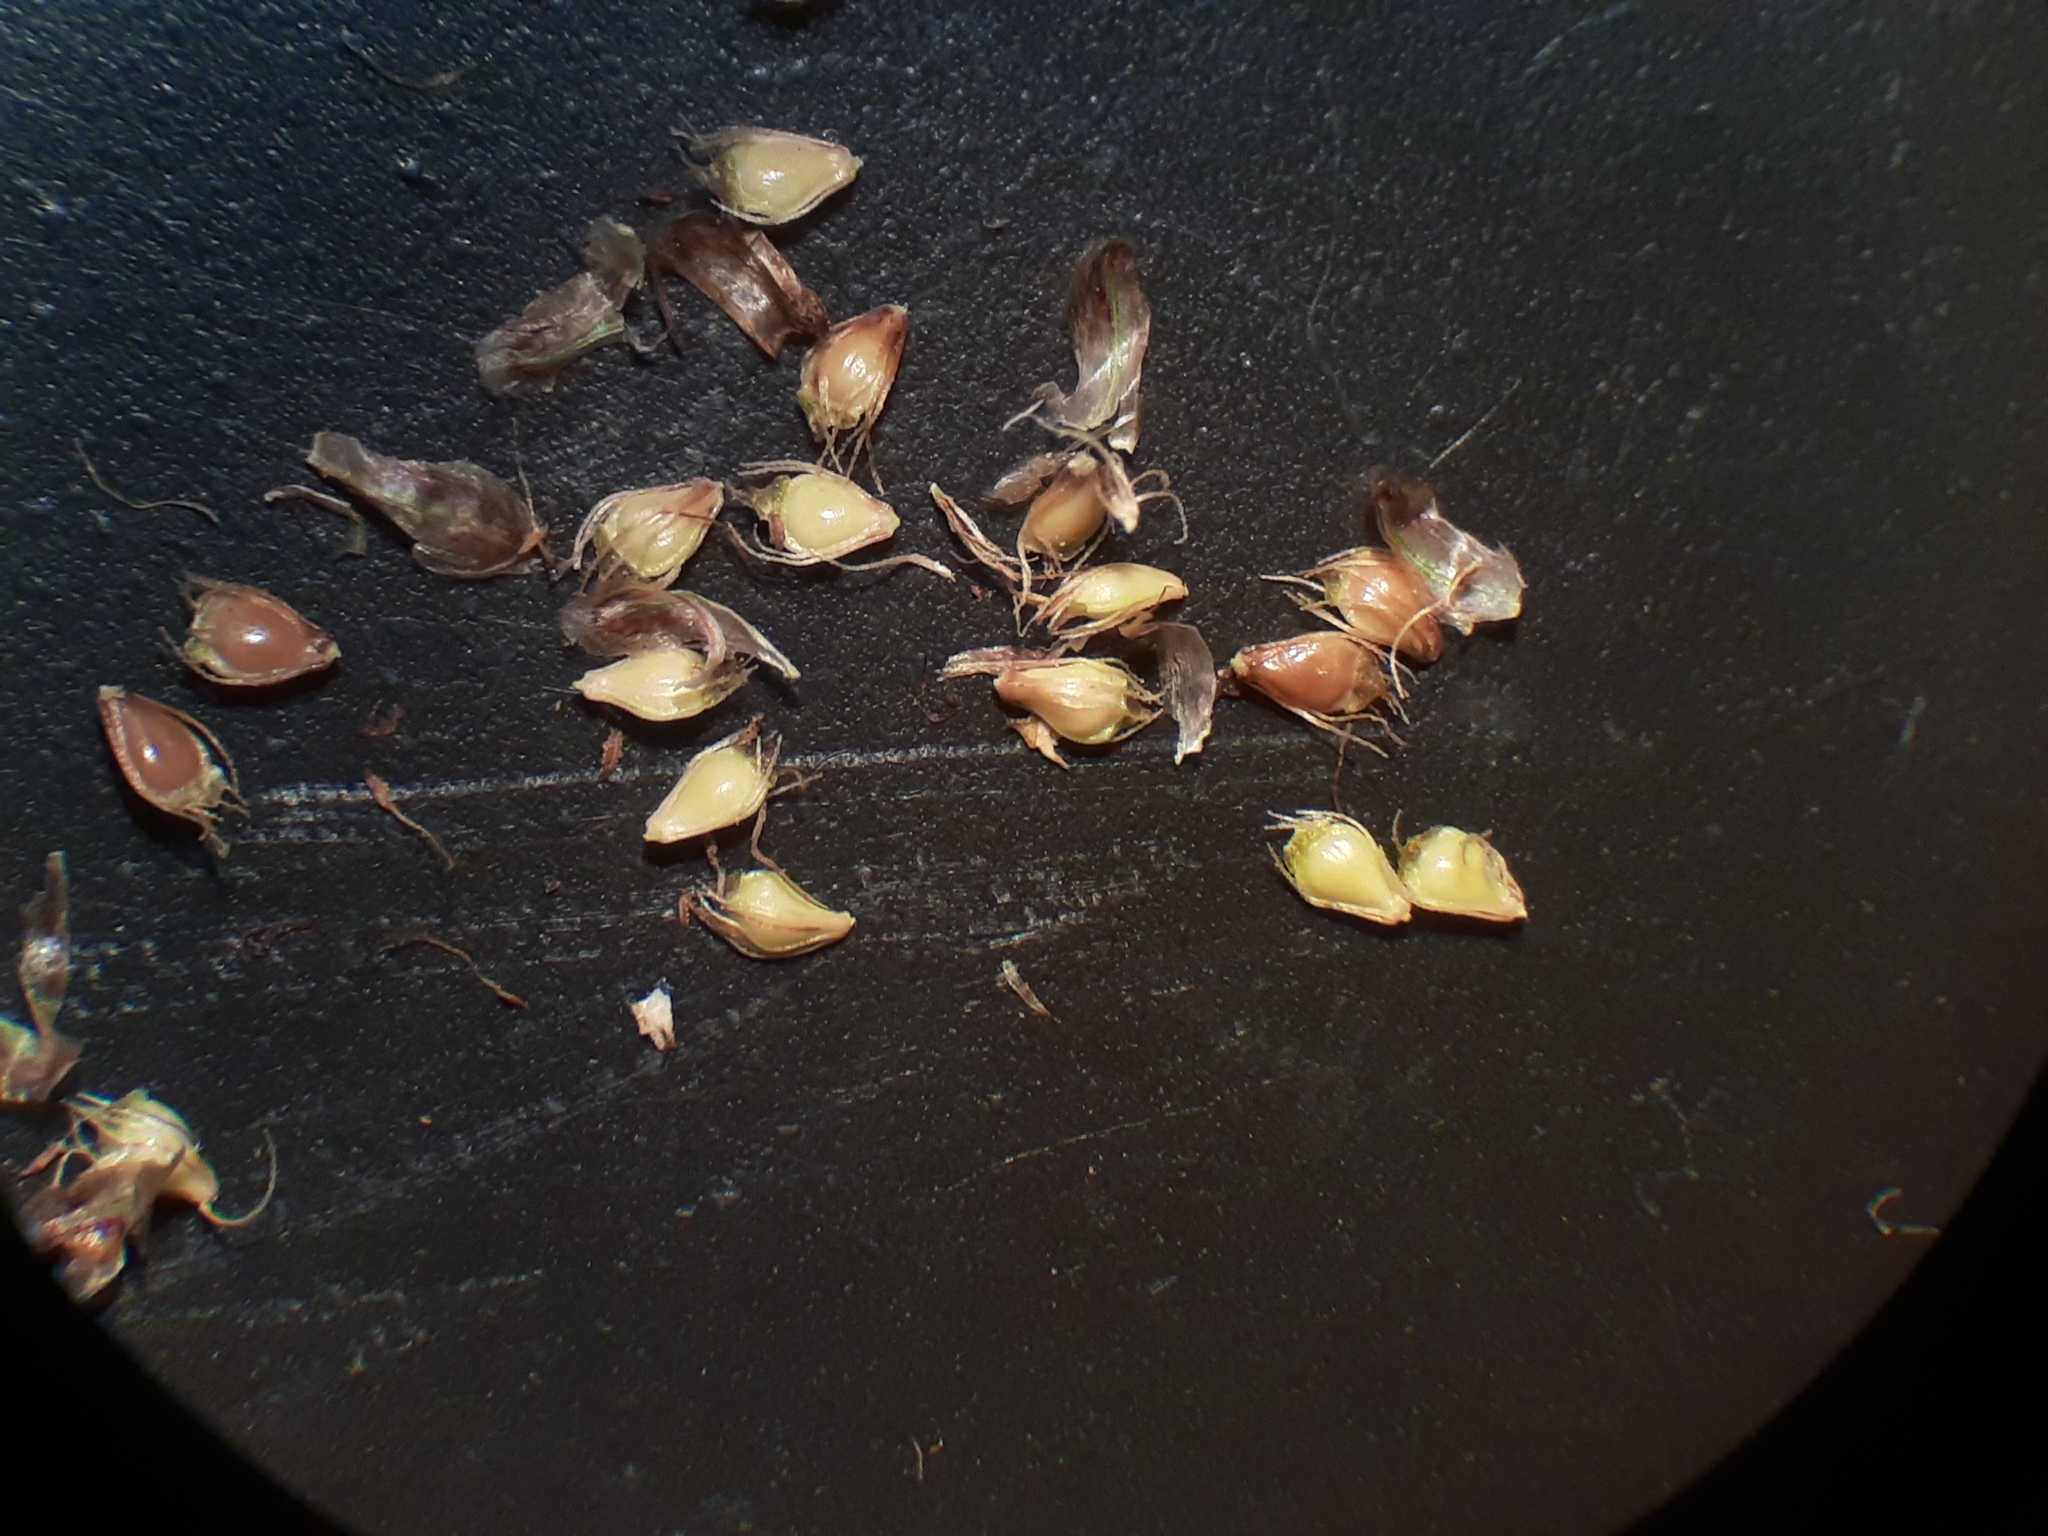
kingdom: Plantae
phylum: Tracheophyta
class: Liliopsida
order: Poales
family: Cyperaceae
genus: Eleocharis
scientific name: Eleocharis obtusa
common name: Blunt spikerush
